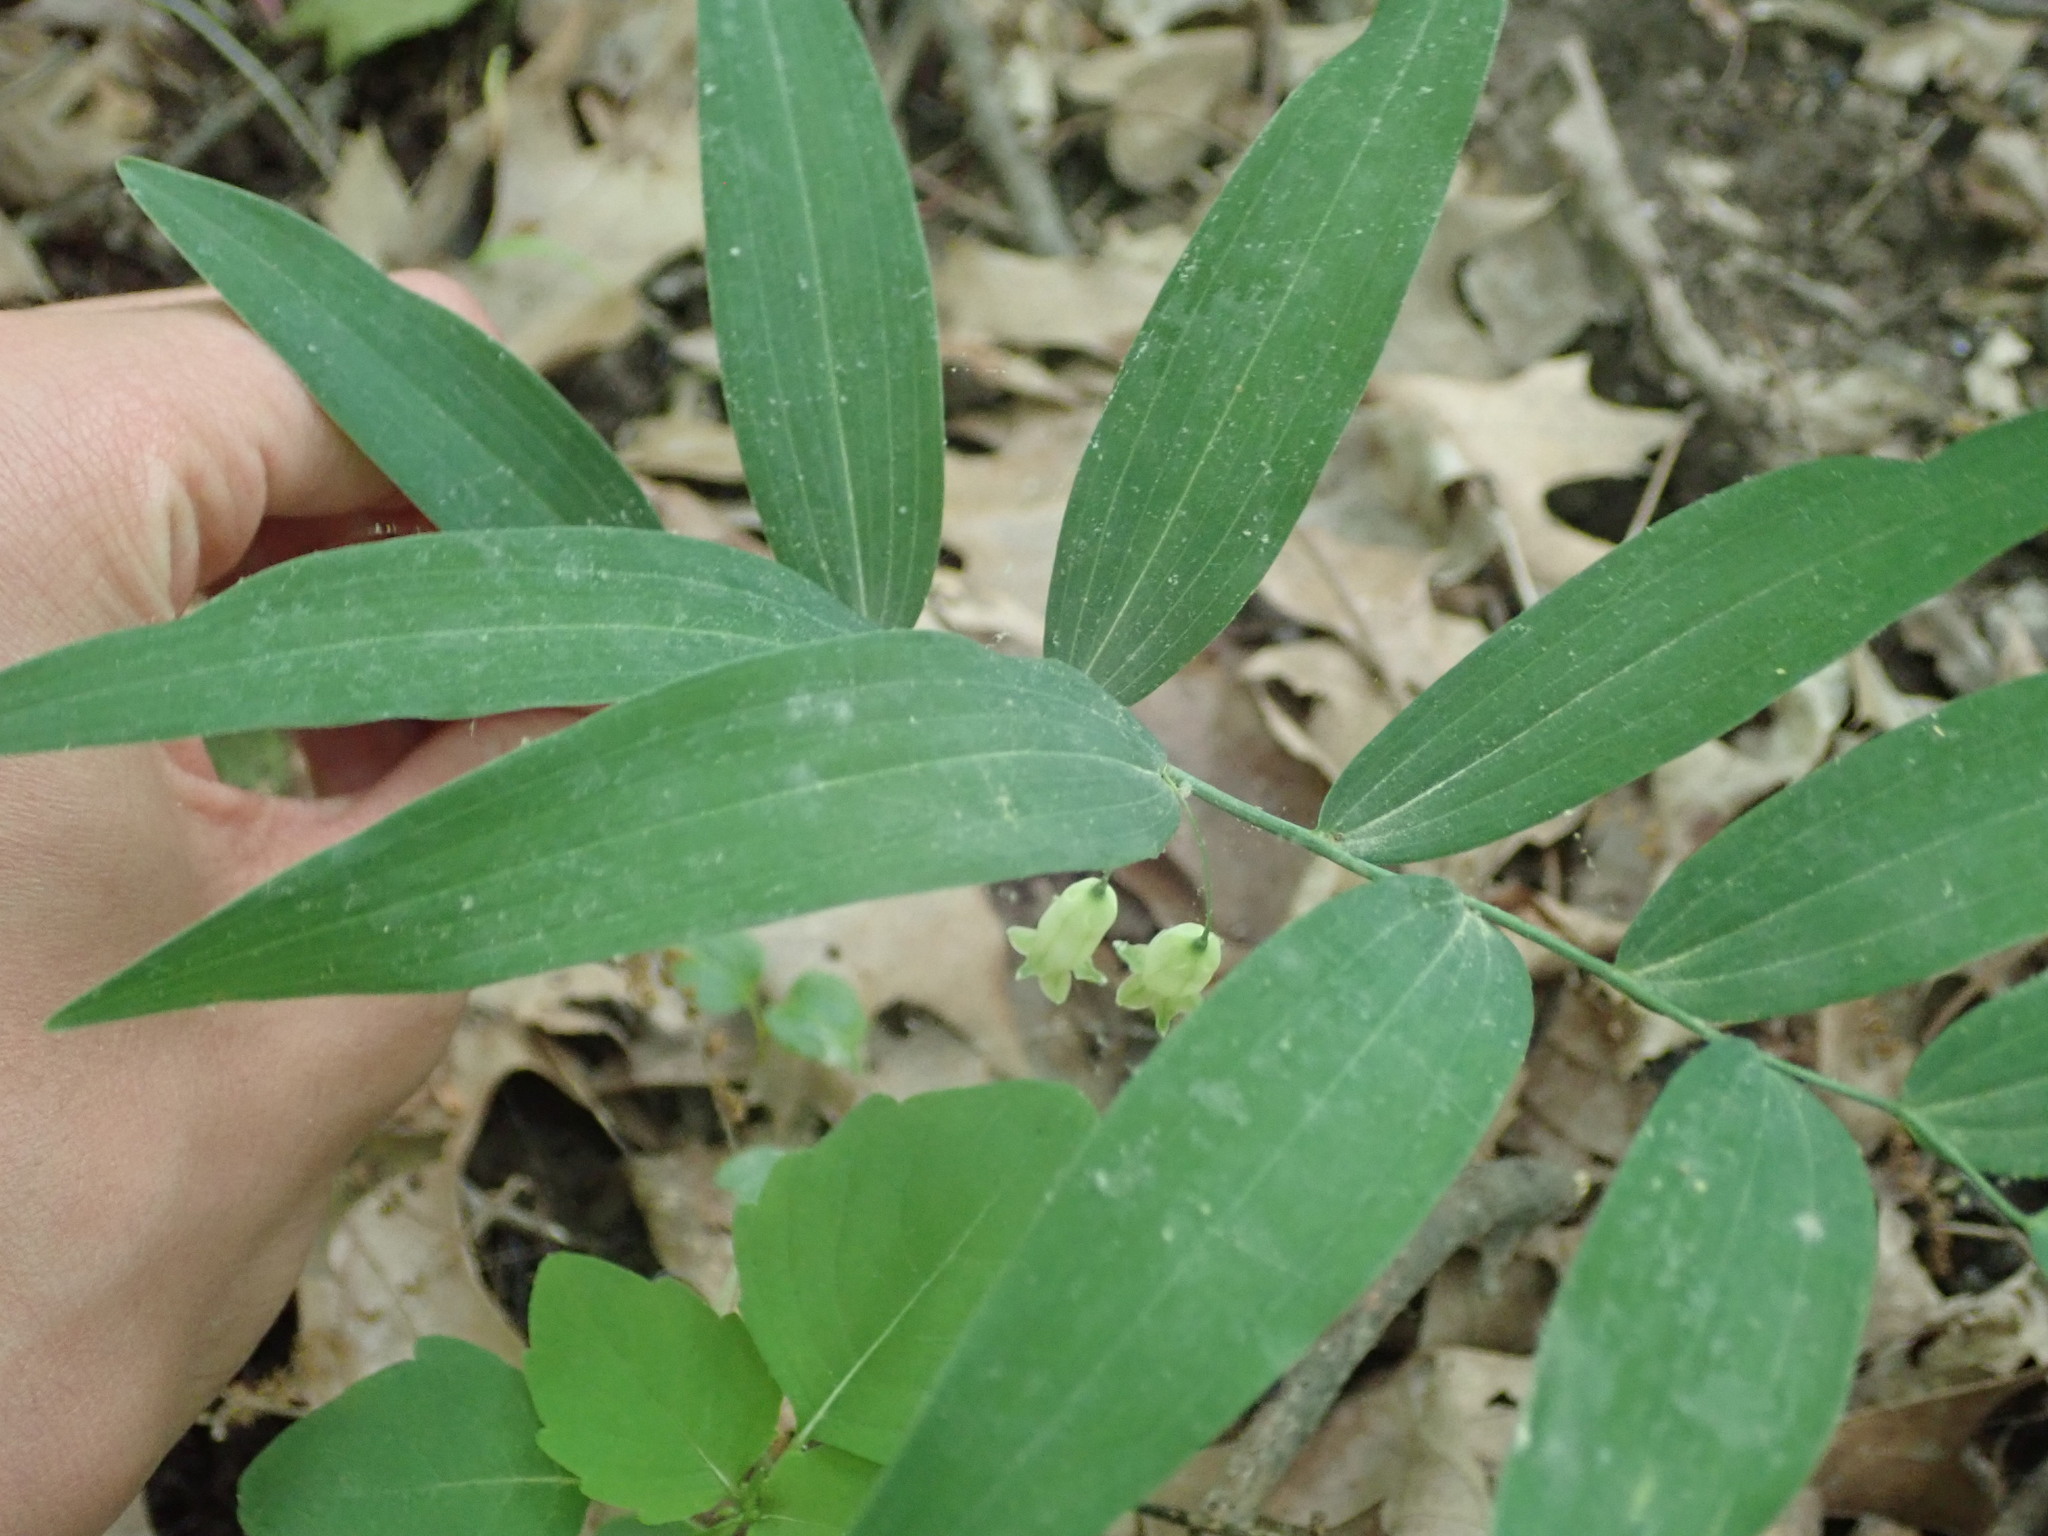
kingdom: Plantae
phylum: Tracheophyta
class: Liliopsida
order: Asparagales
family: Asparagaceae
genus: Polygonatum
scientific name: Polygonatum biflorum
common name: American solomon's-seal
